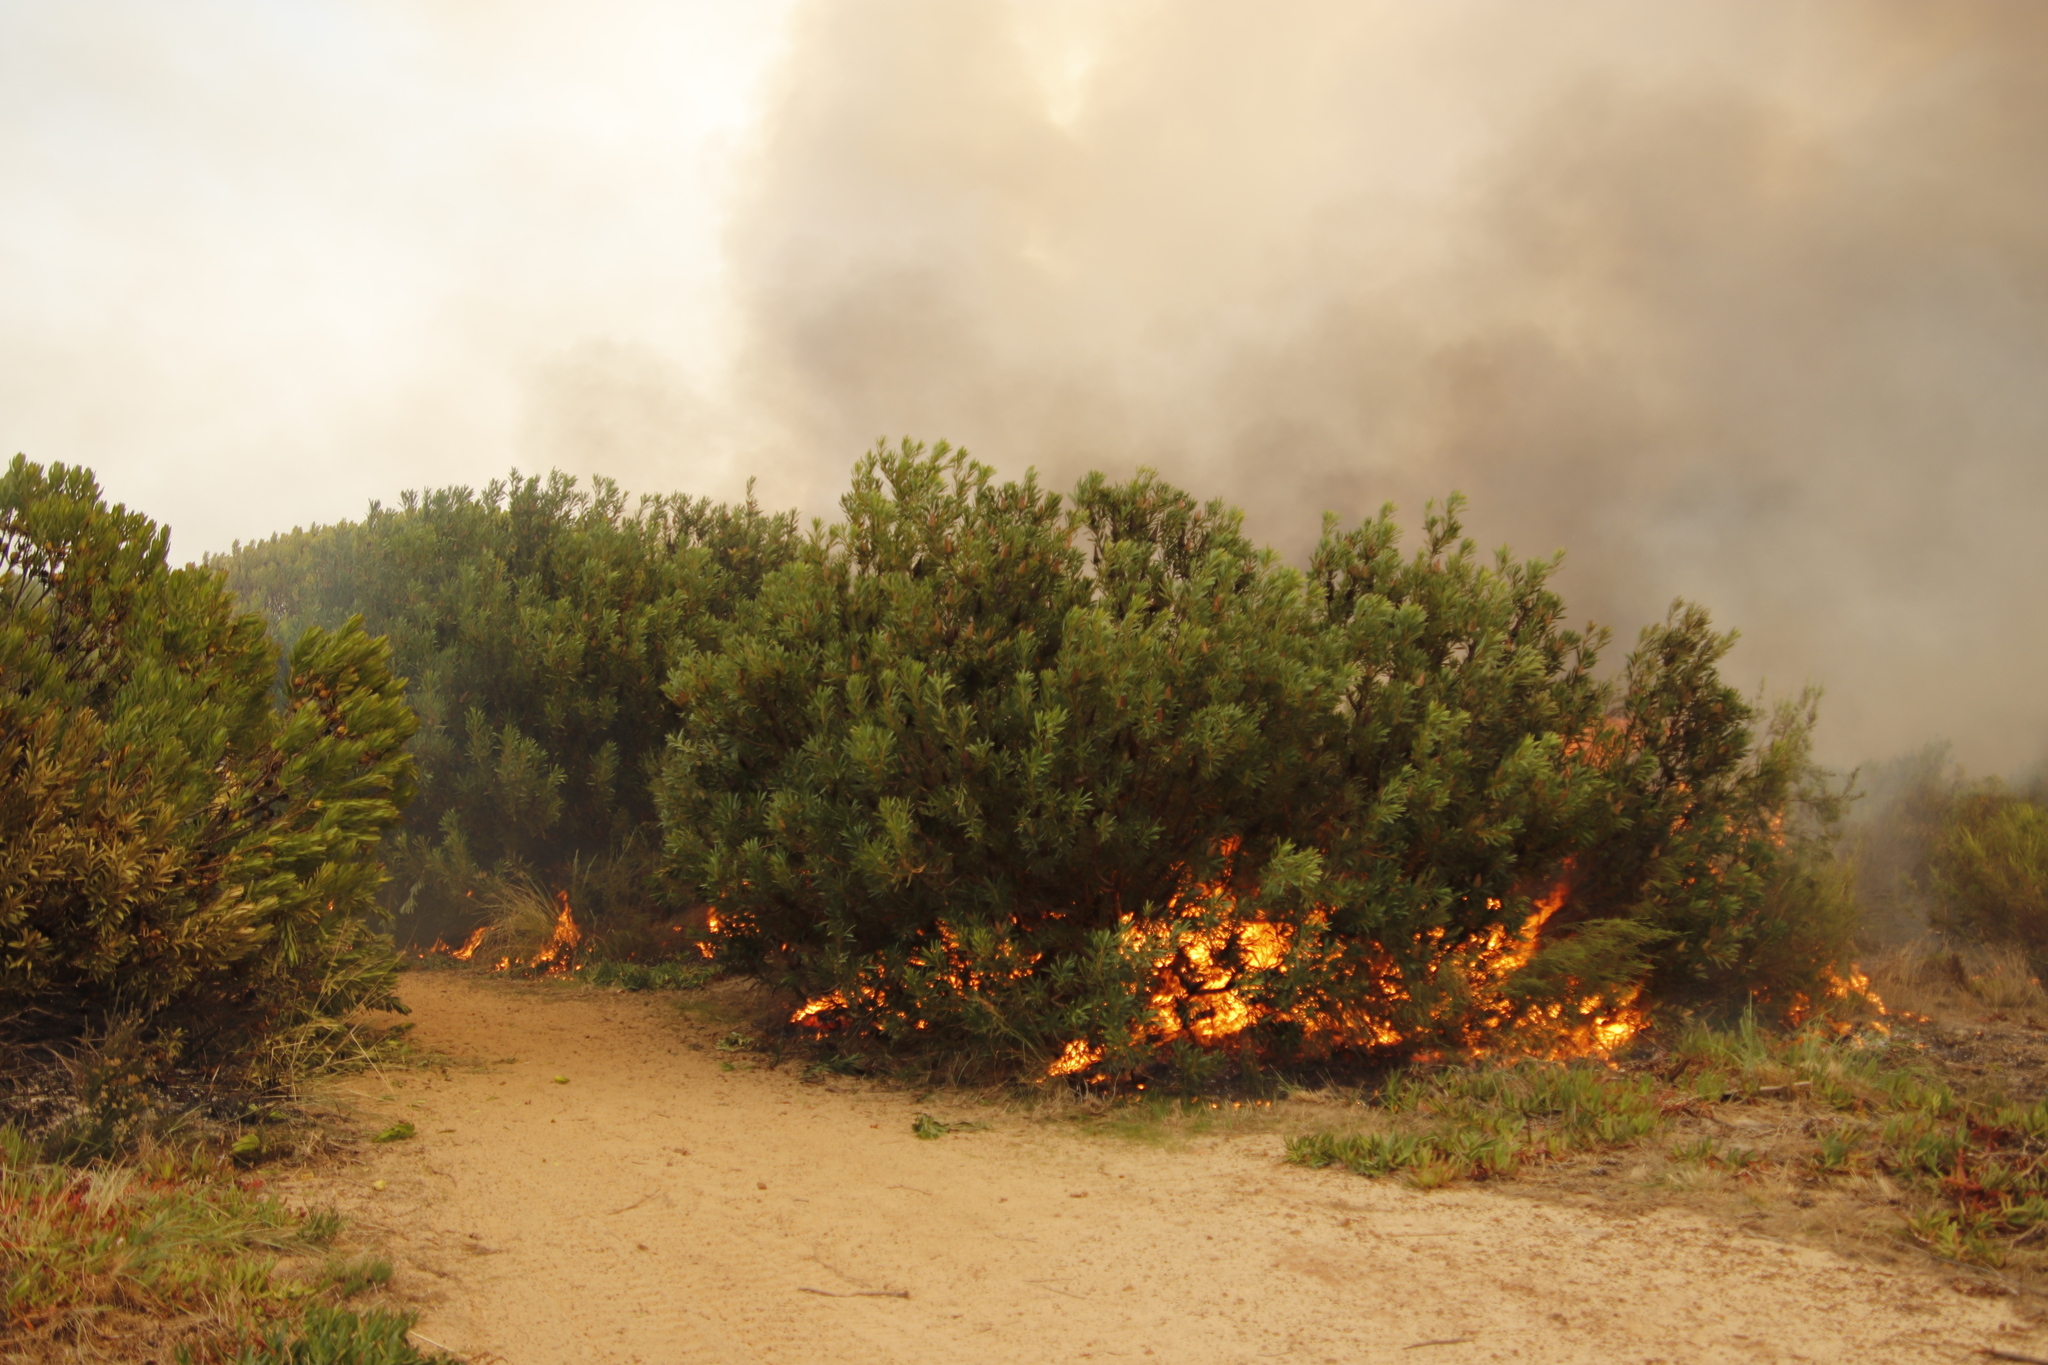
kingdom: Plantae
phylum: Tracheophyta
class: Magnoliopsida
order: Proteales
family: Proteaceae
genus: Leucadendron
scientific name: Leucadendron laureolum
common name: Golden sunshinebush
